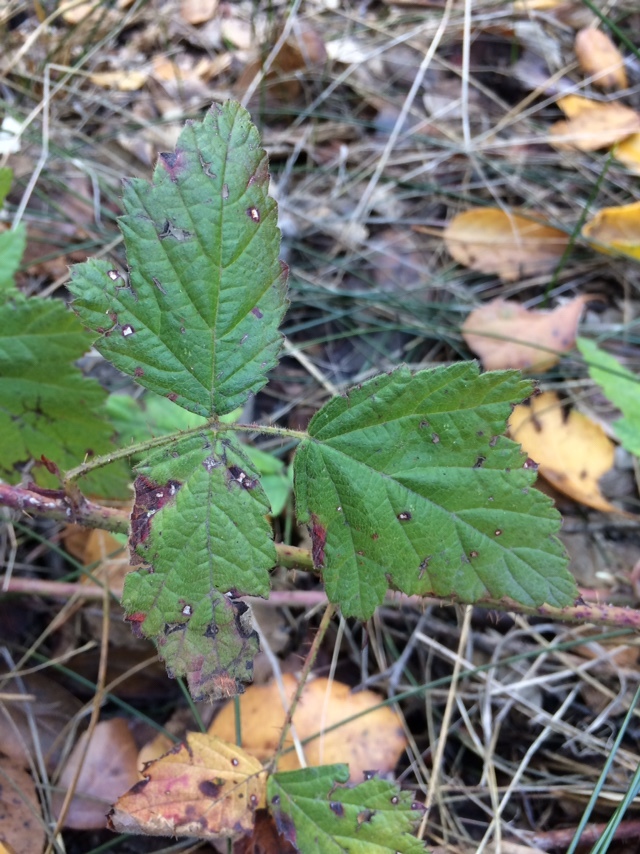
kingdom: Plantae
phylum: Tracheophyta
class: Magnoliopsida
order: Rosales
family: Rosaceae
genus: Rubus
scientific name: Rubus ursinus
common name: Pacific blackberry
